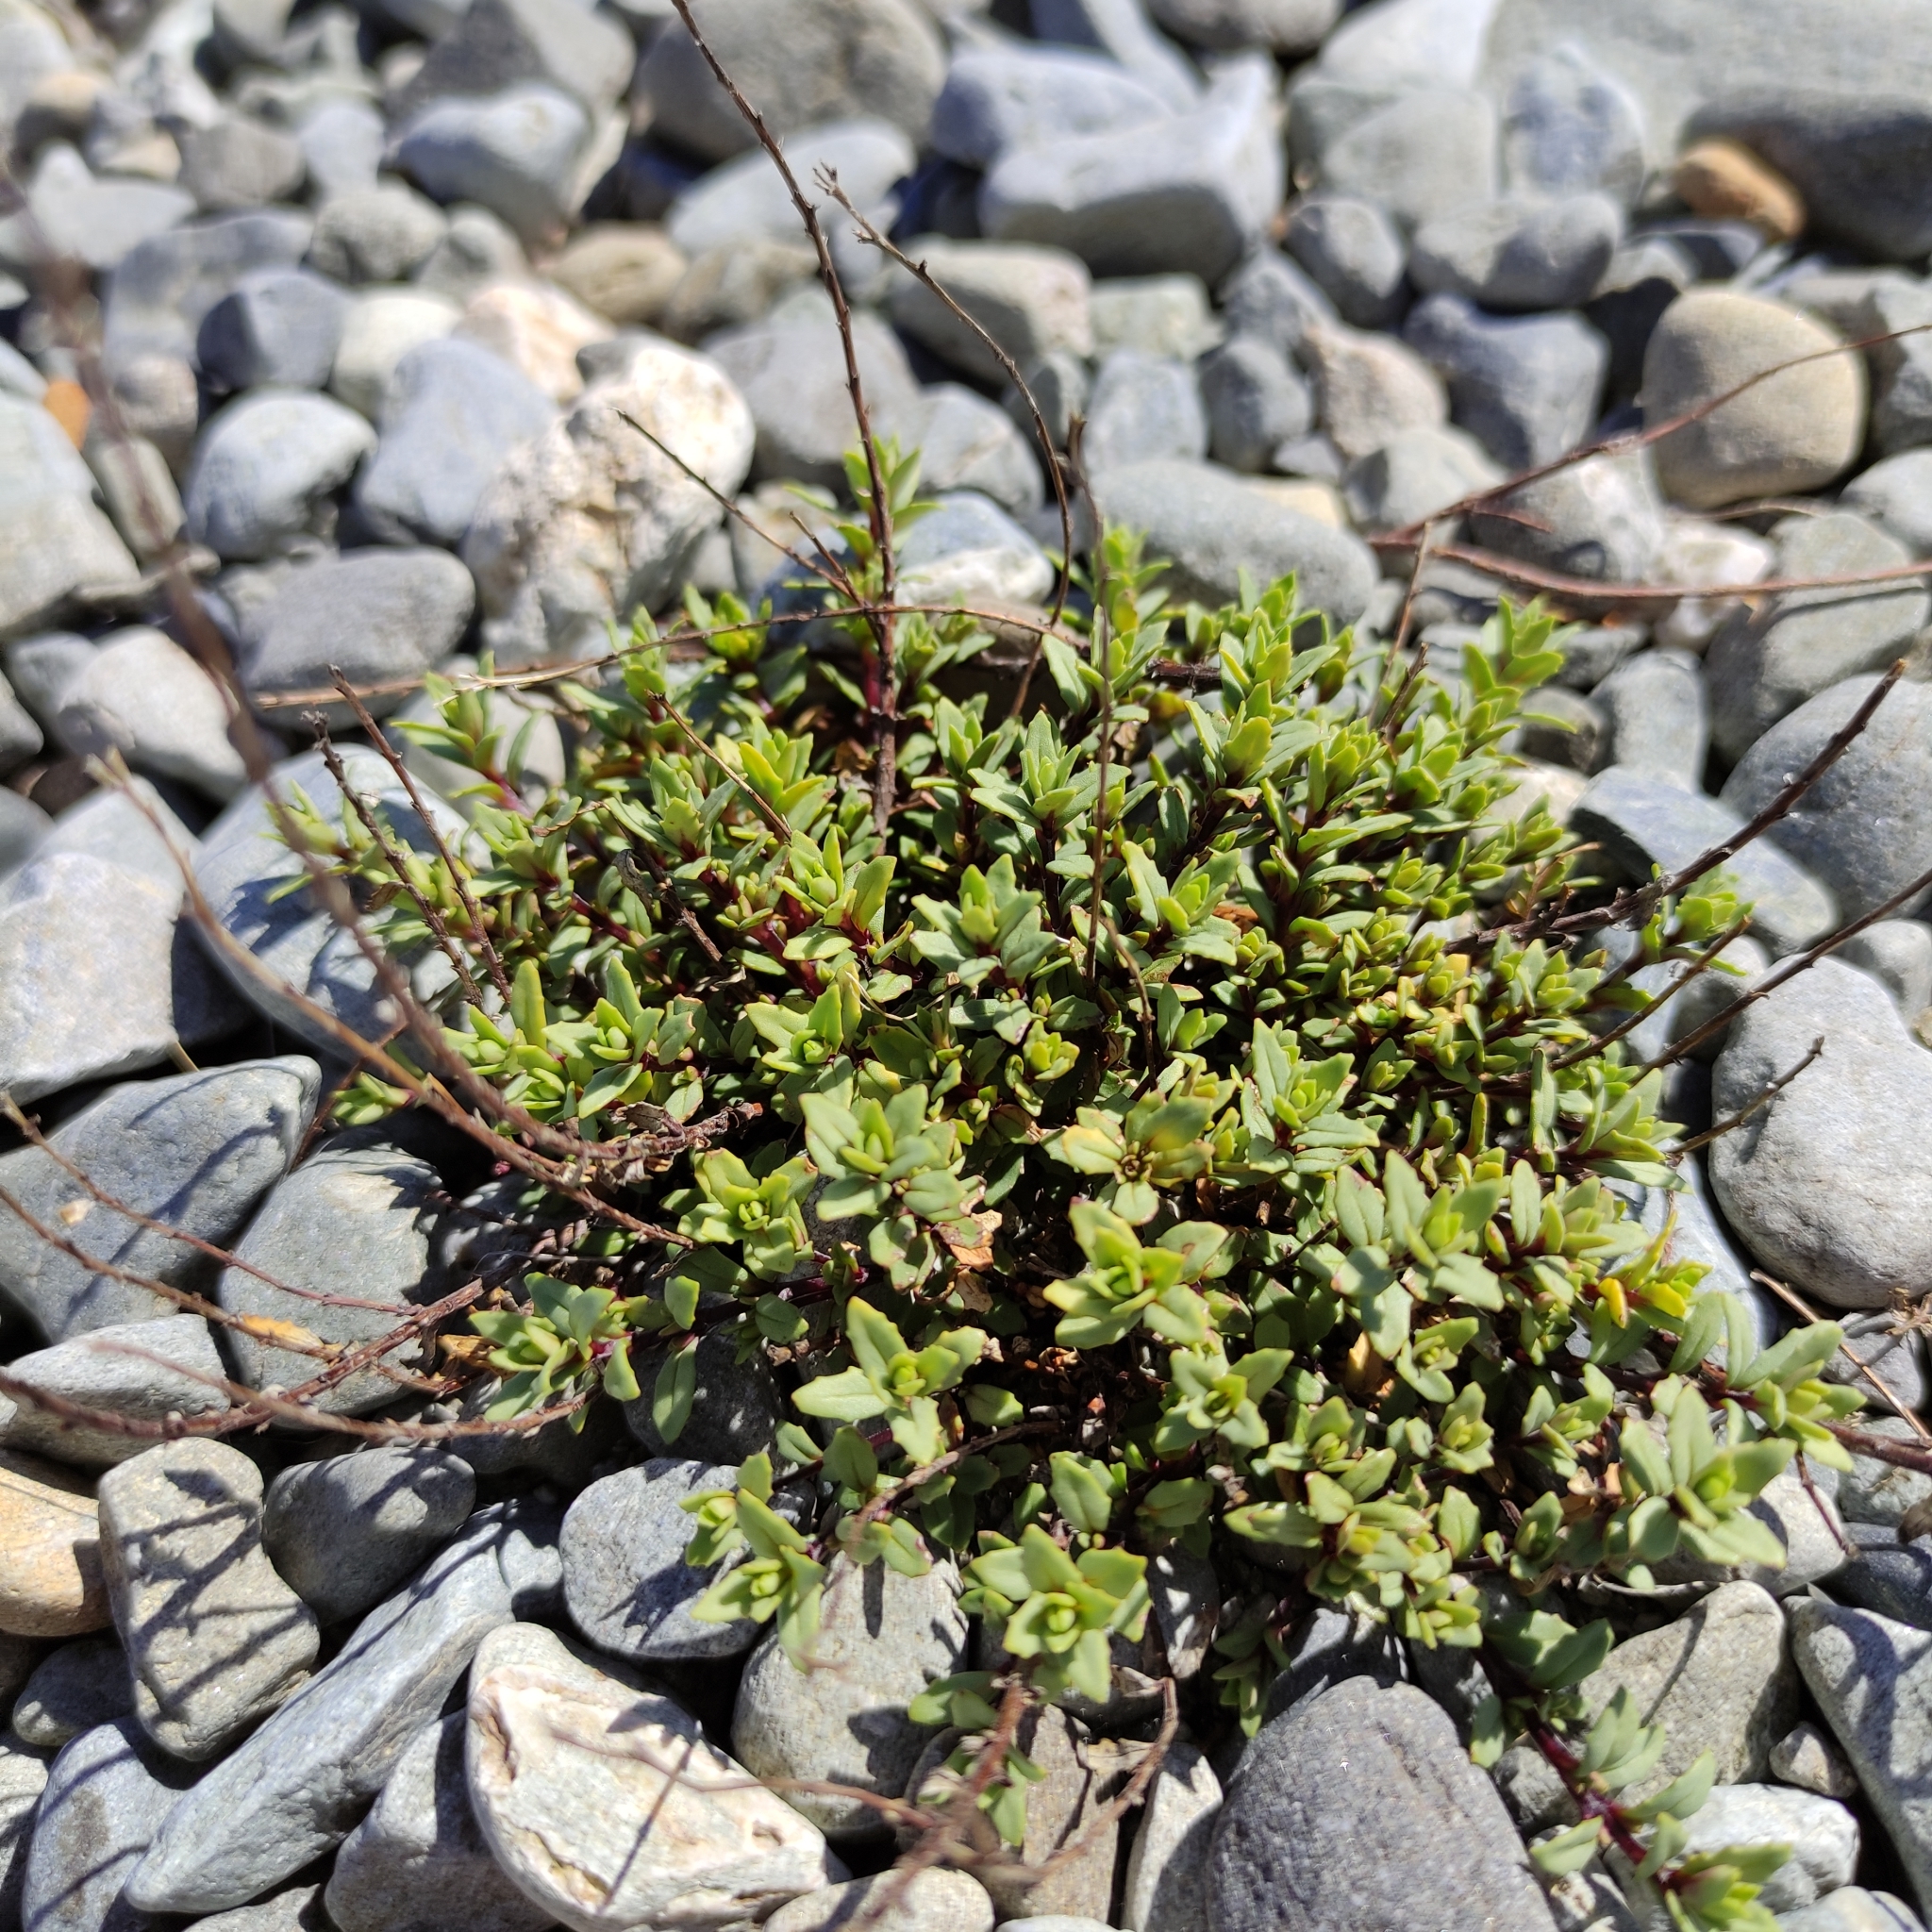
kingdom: Plantae
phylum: Tracheophyta
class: Magnoliopsida
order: Myrtales
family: Onagraceae
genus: Epilobium
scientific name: Epilobium melanocaulon
